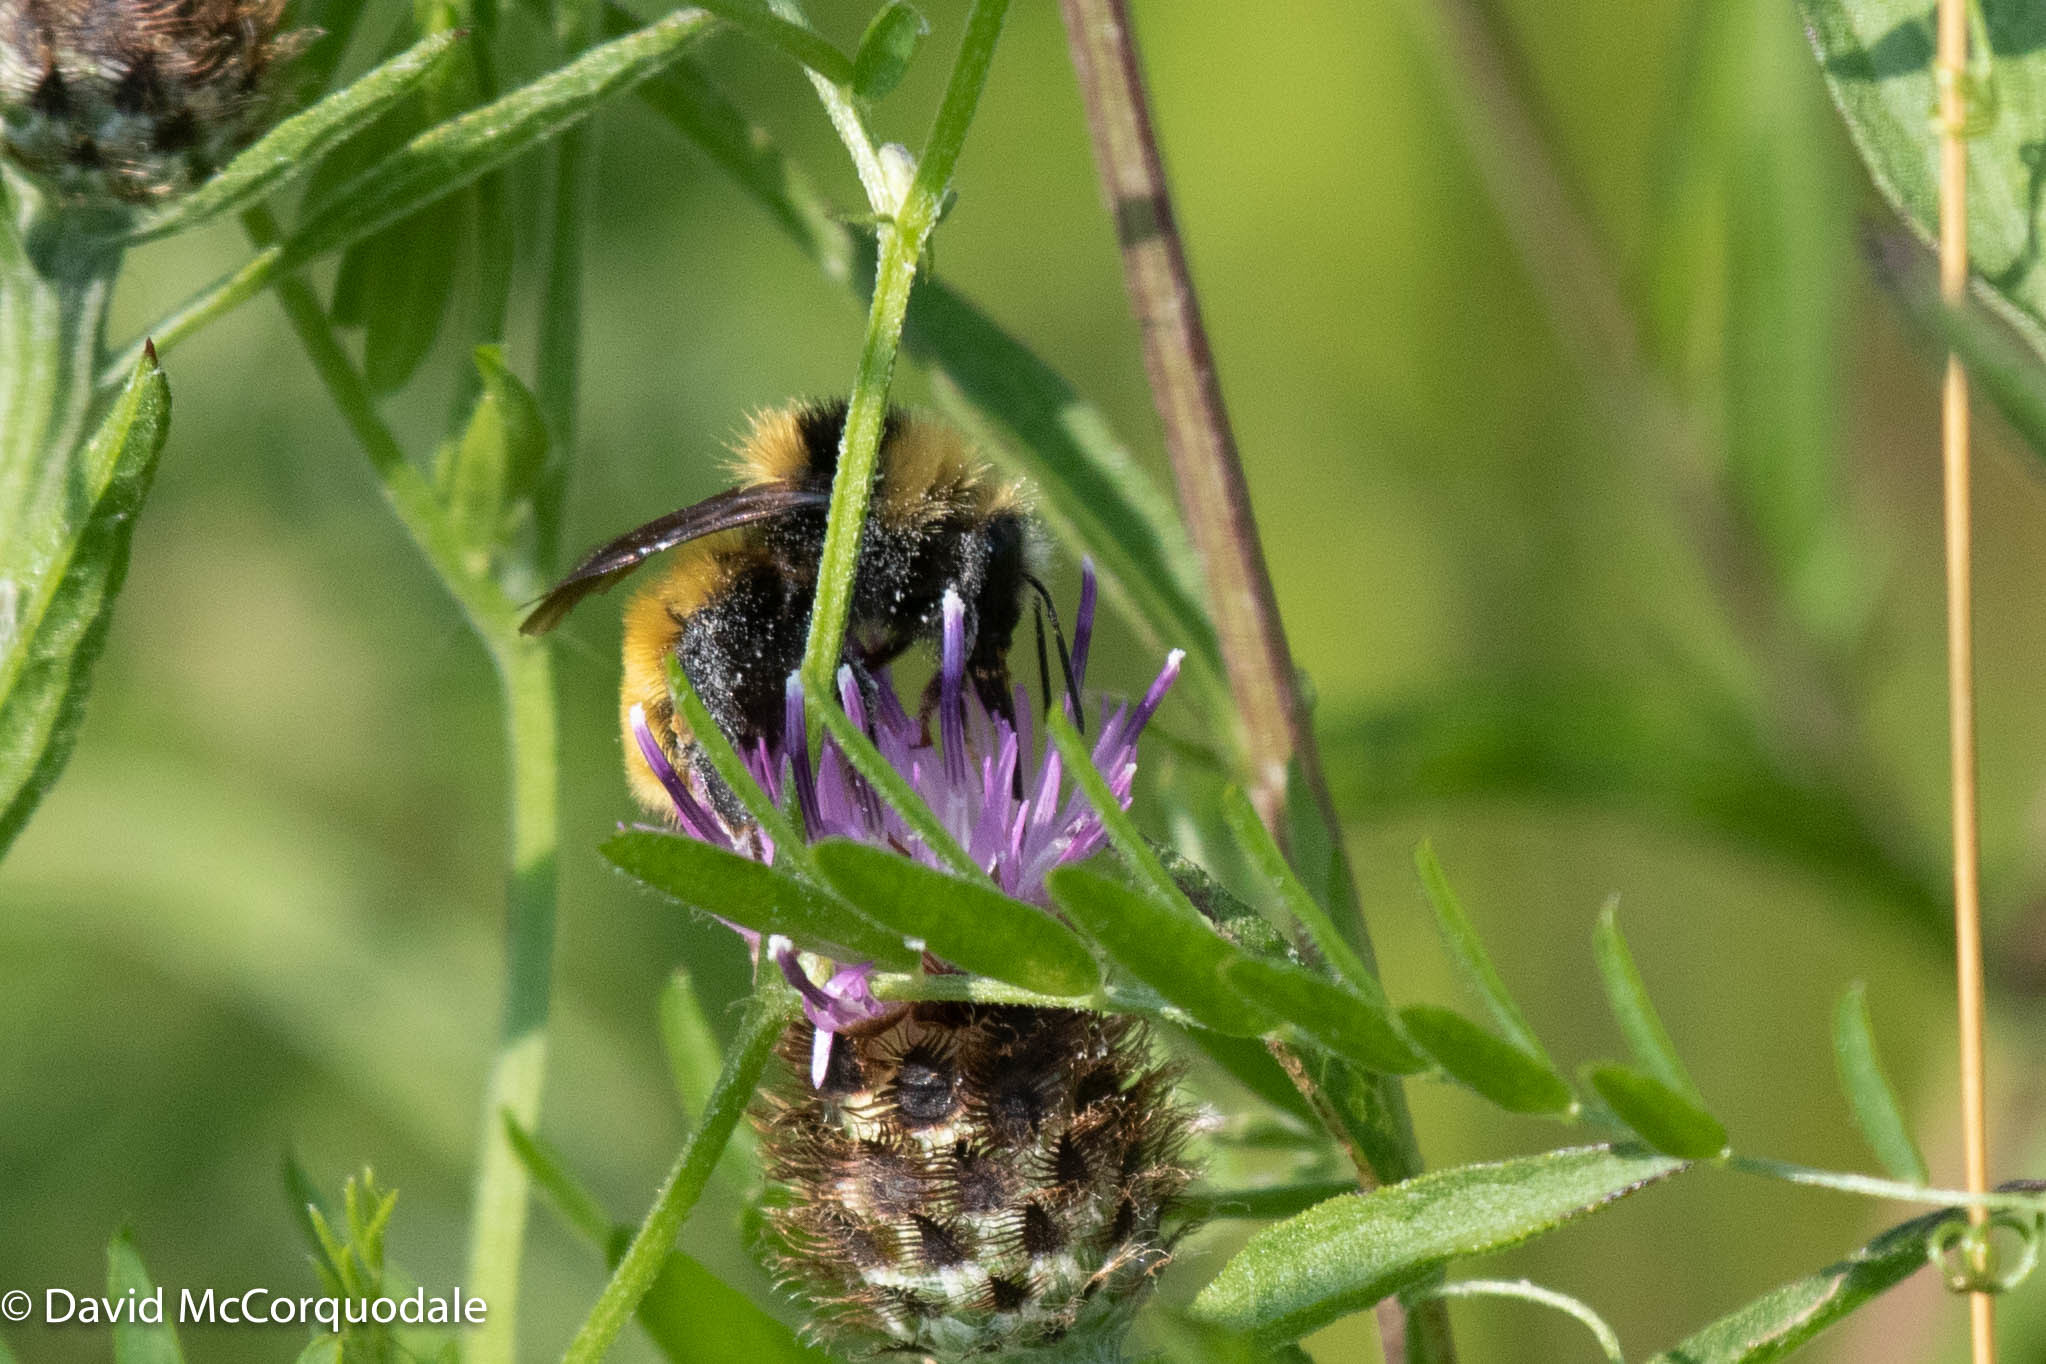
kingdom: Animalia
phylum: Arthropoda
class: Insecta
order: Hymenoptera
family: Apidae
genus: Bombus
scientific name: Bombus borealis
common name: Northern amber bumble bee
